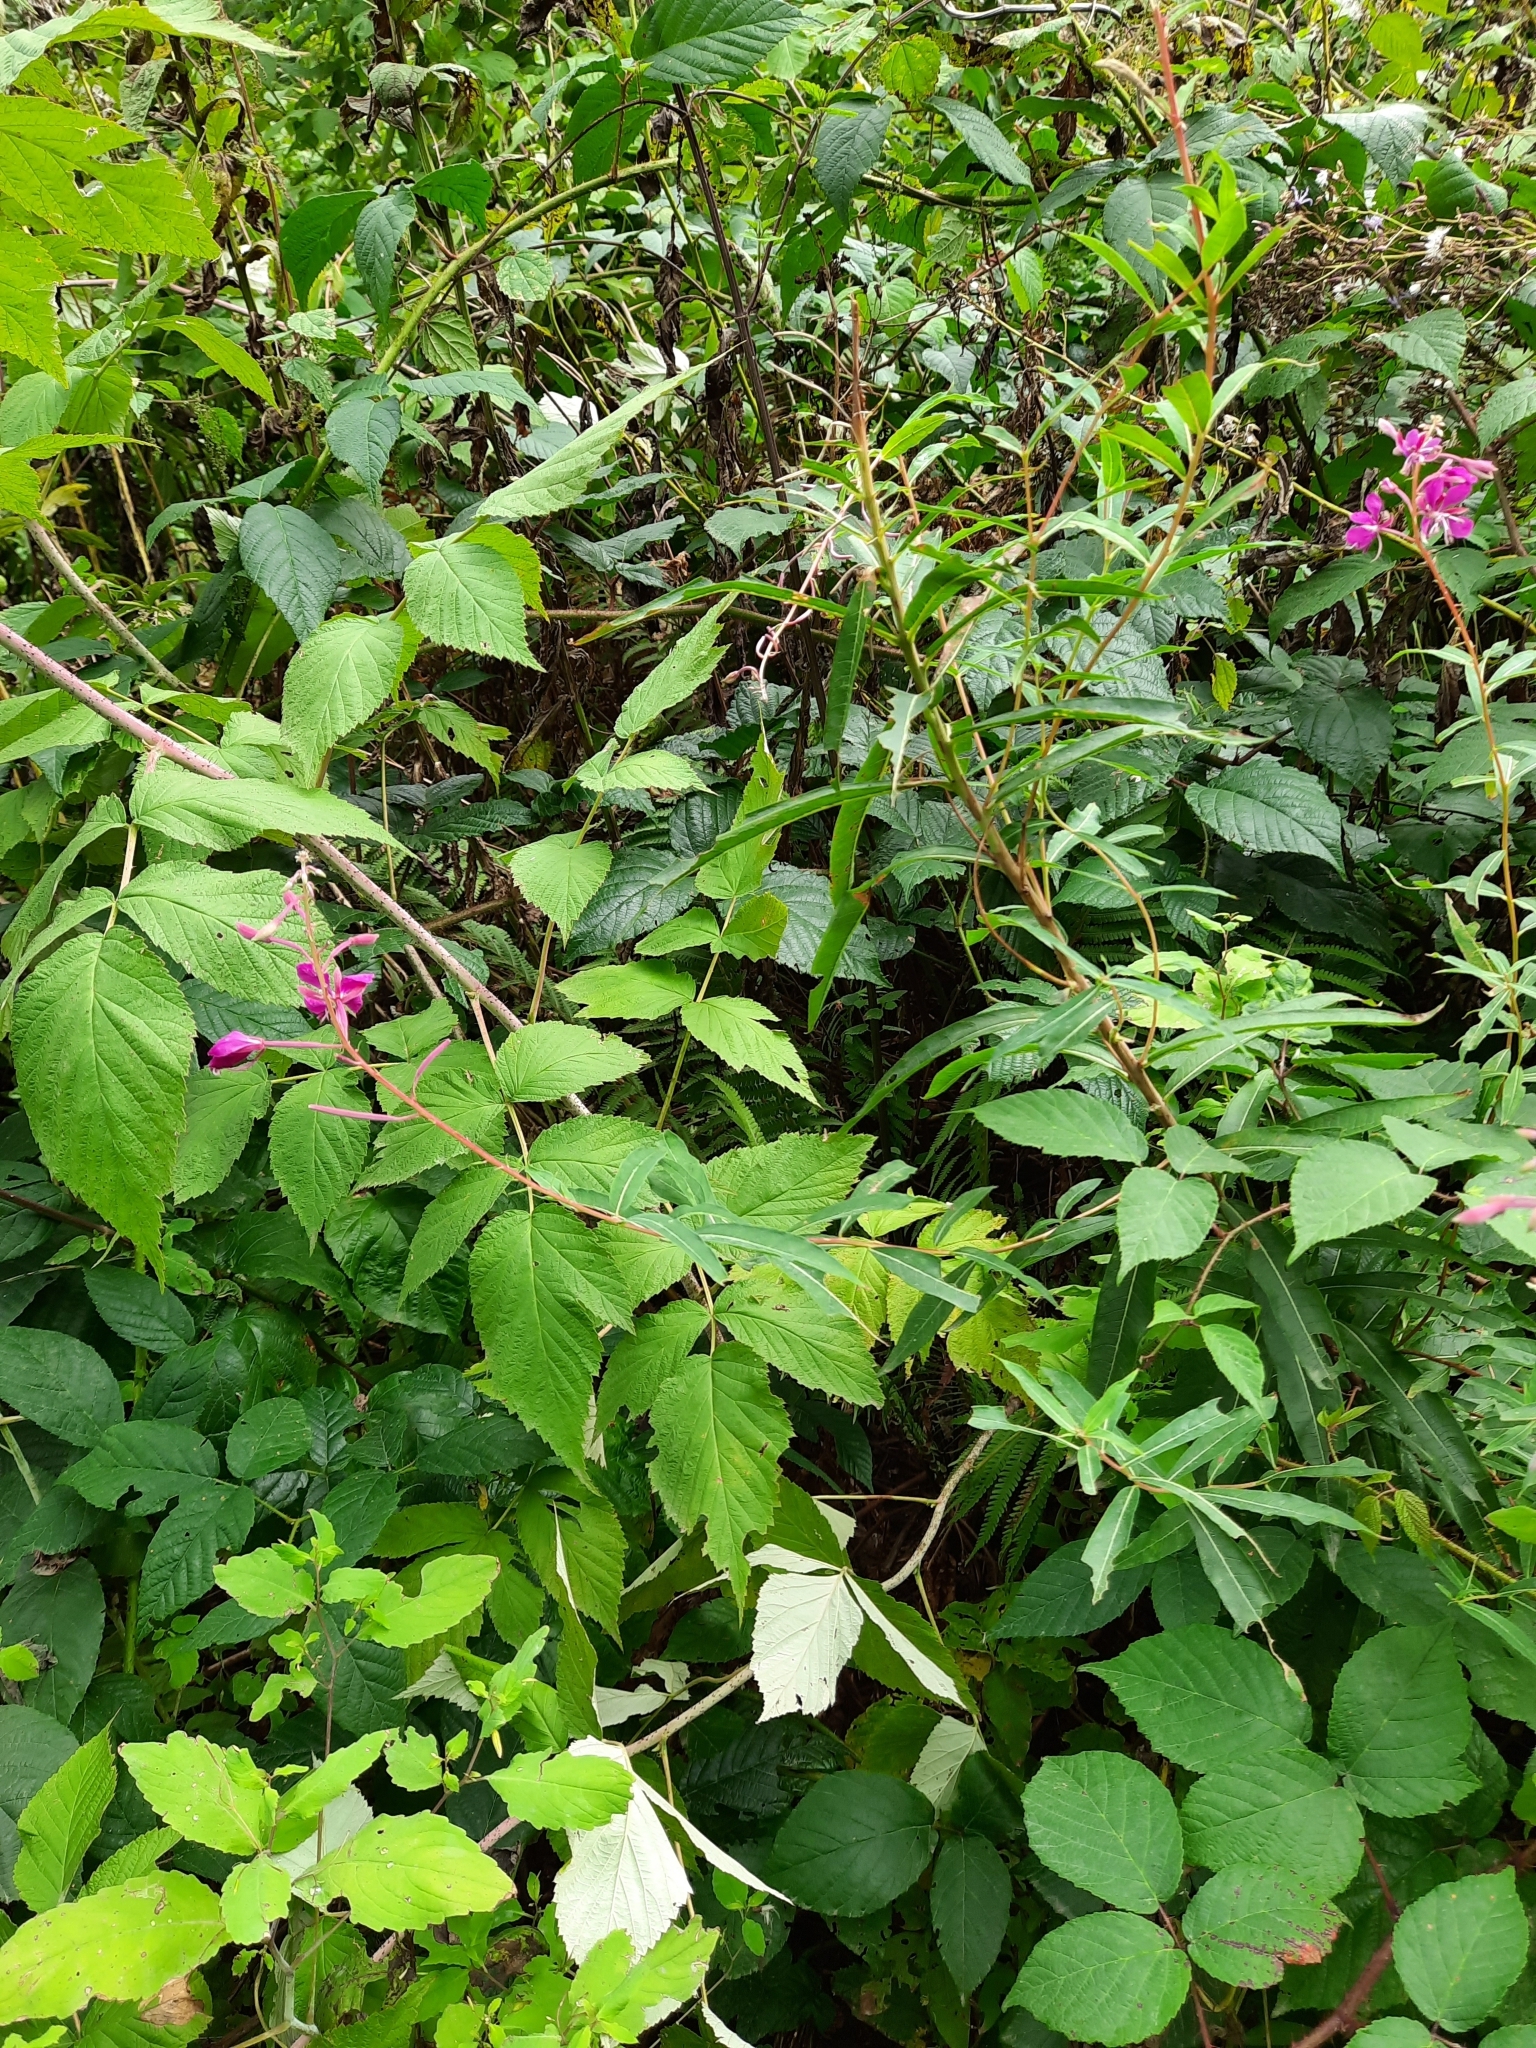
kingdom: Plantae
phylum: Tracheophyta
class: Magnoliopsida
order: Myrtales
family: Onagraceae
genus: Chamaenerion
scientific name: Chamaenerion angustifolium
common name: Fireweed
